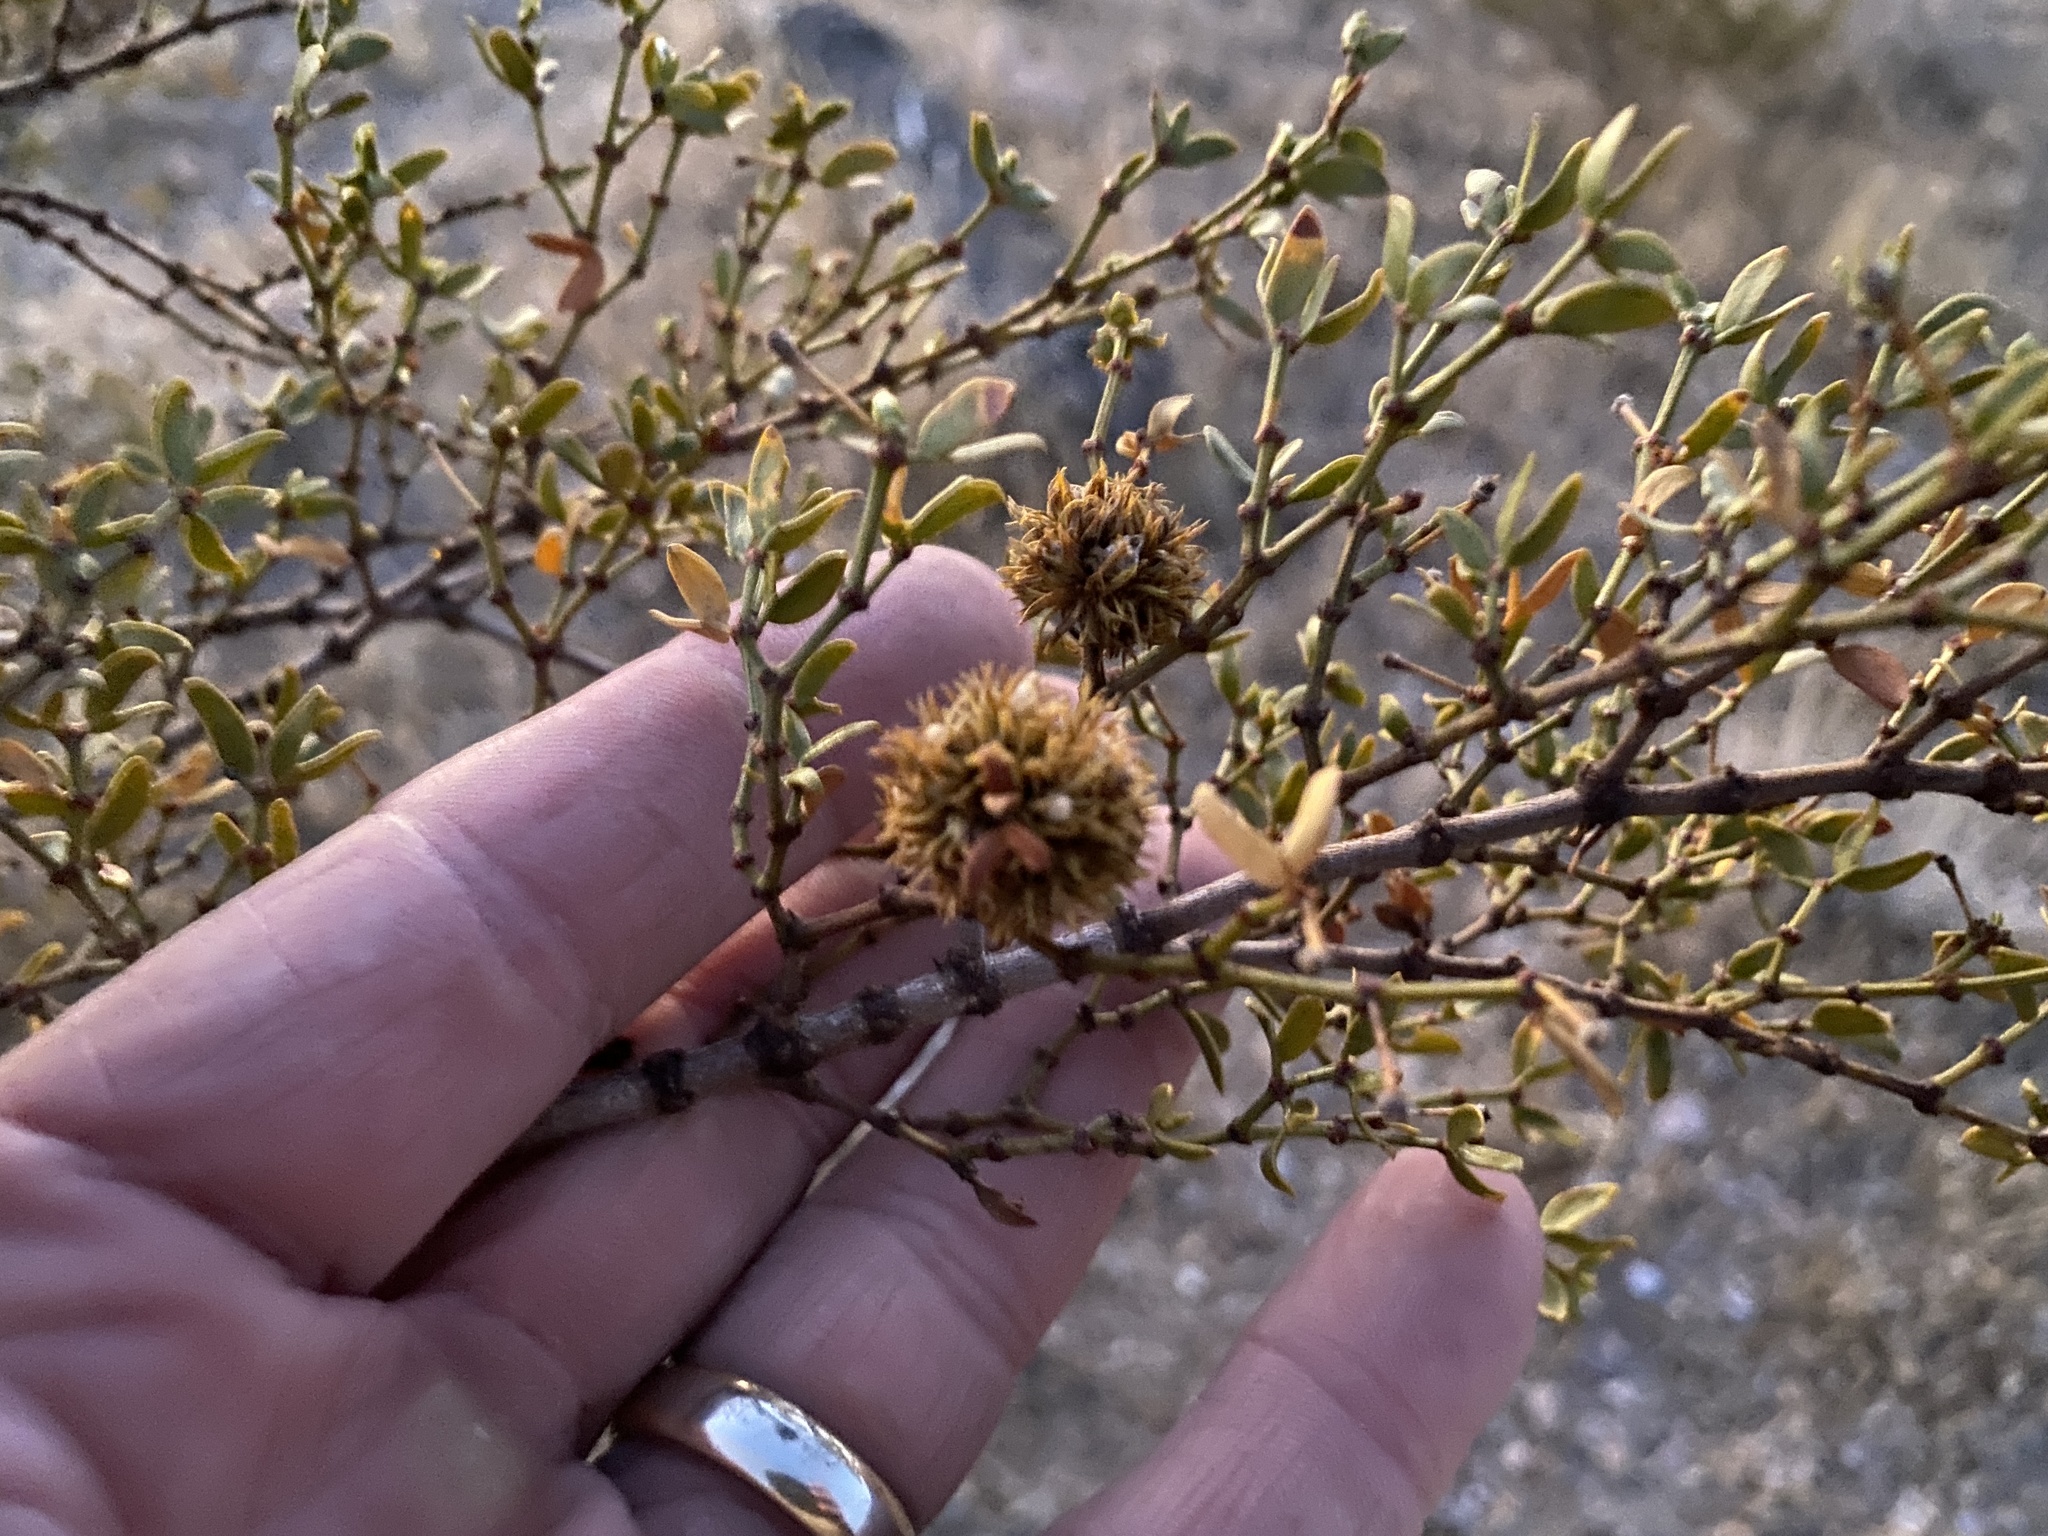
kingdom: Animalia
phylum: Arthropoda
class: Insecta
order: Diptera
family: Cecidomyiidae
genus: Asphondylia
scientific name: Asphondylia auripila
